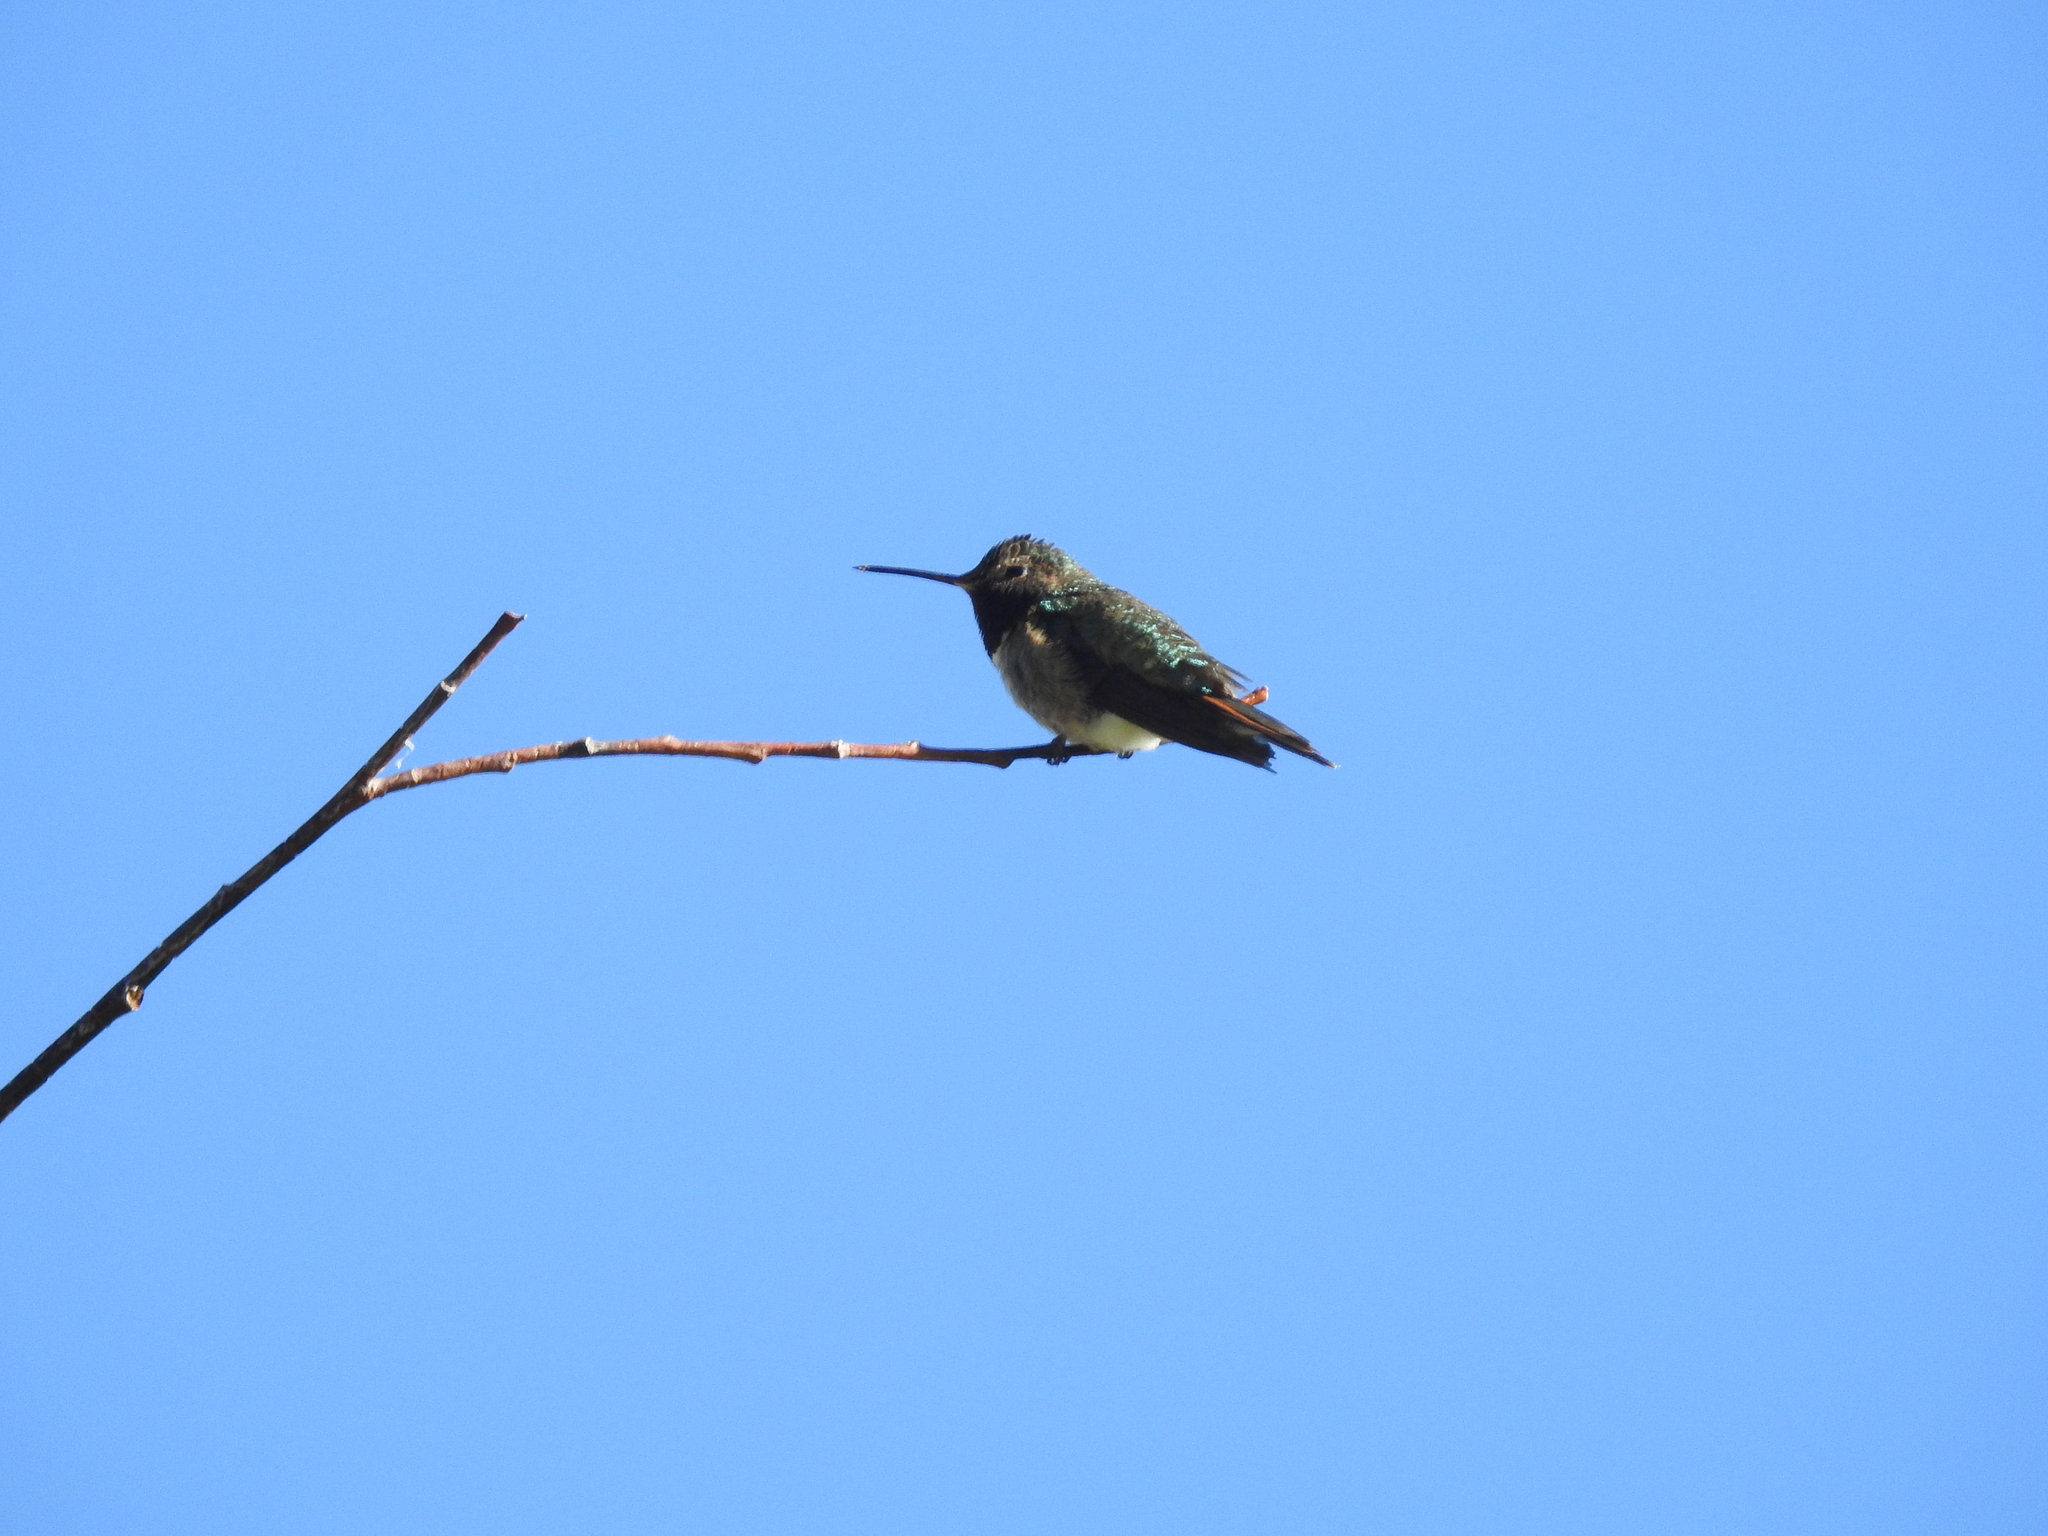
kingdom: Animalia
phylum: Chordata
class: Aves
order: Apodiformes
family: Trochilidae
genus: Selasphorus
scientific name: Selasphorus platycercus
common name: Broad-tailed hummingbird
